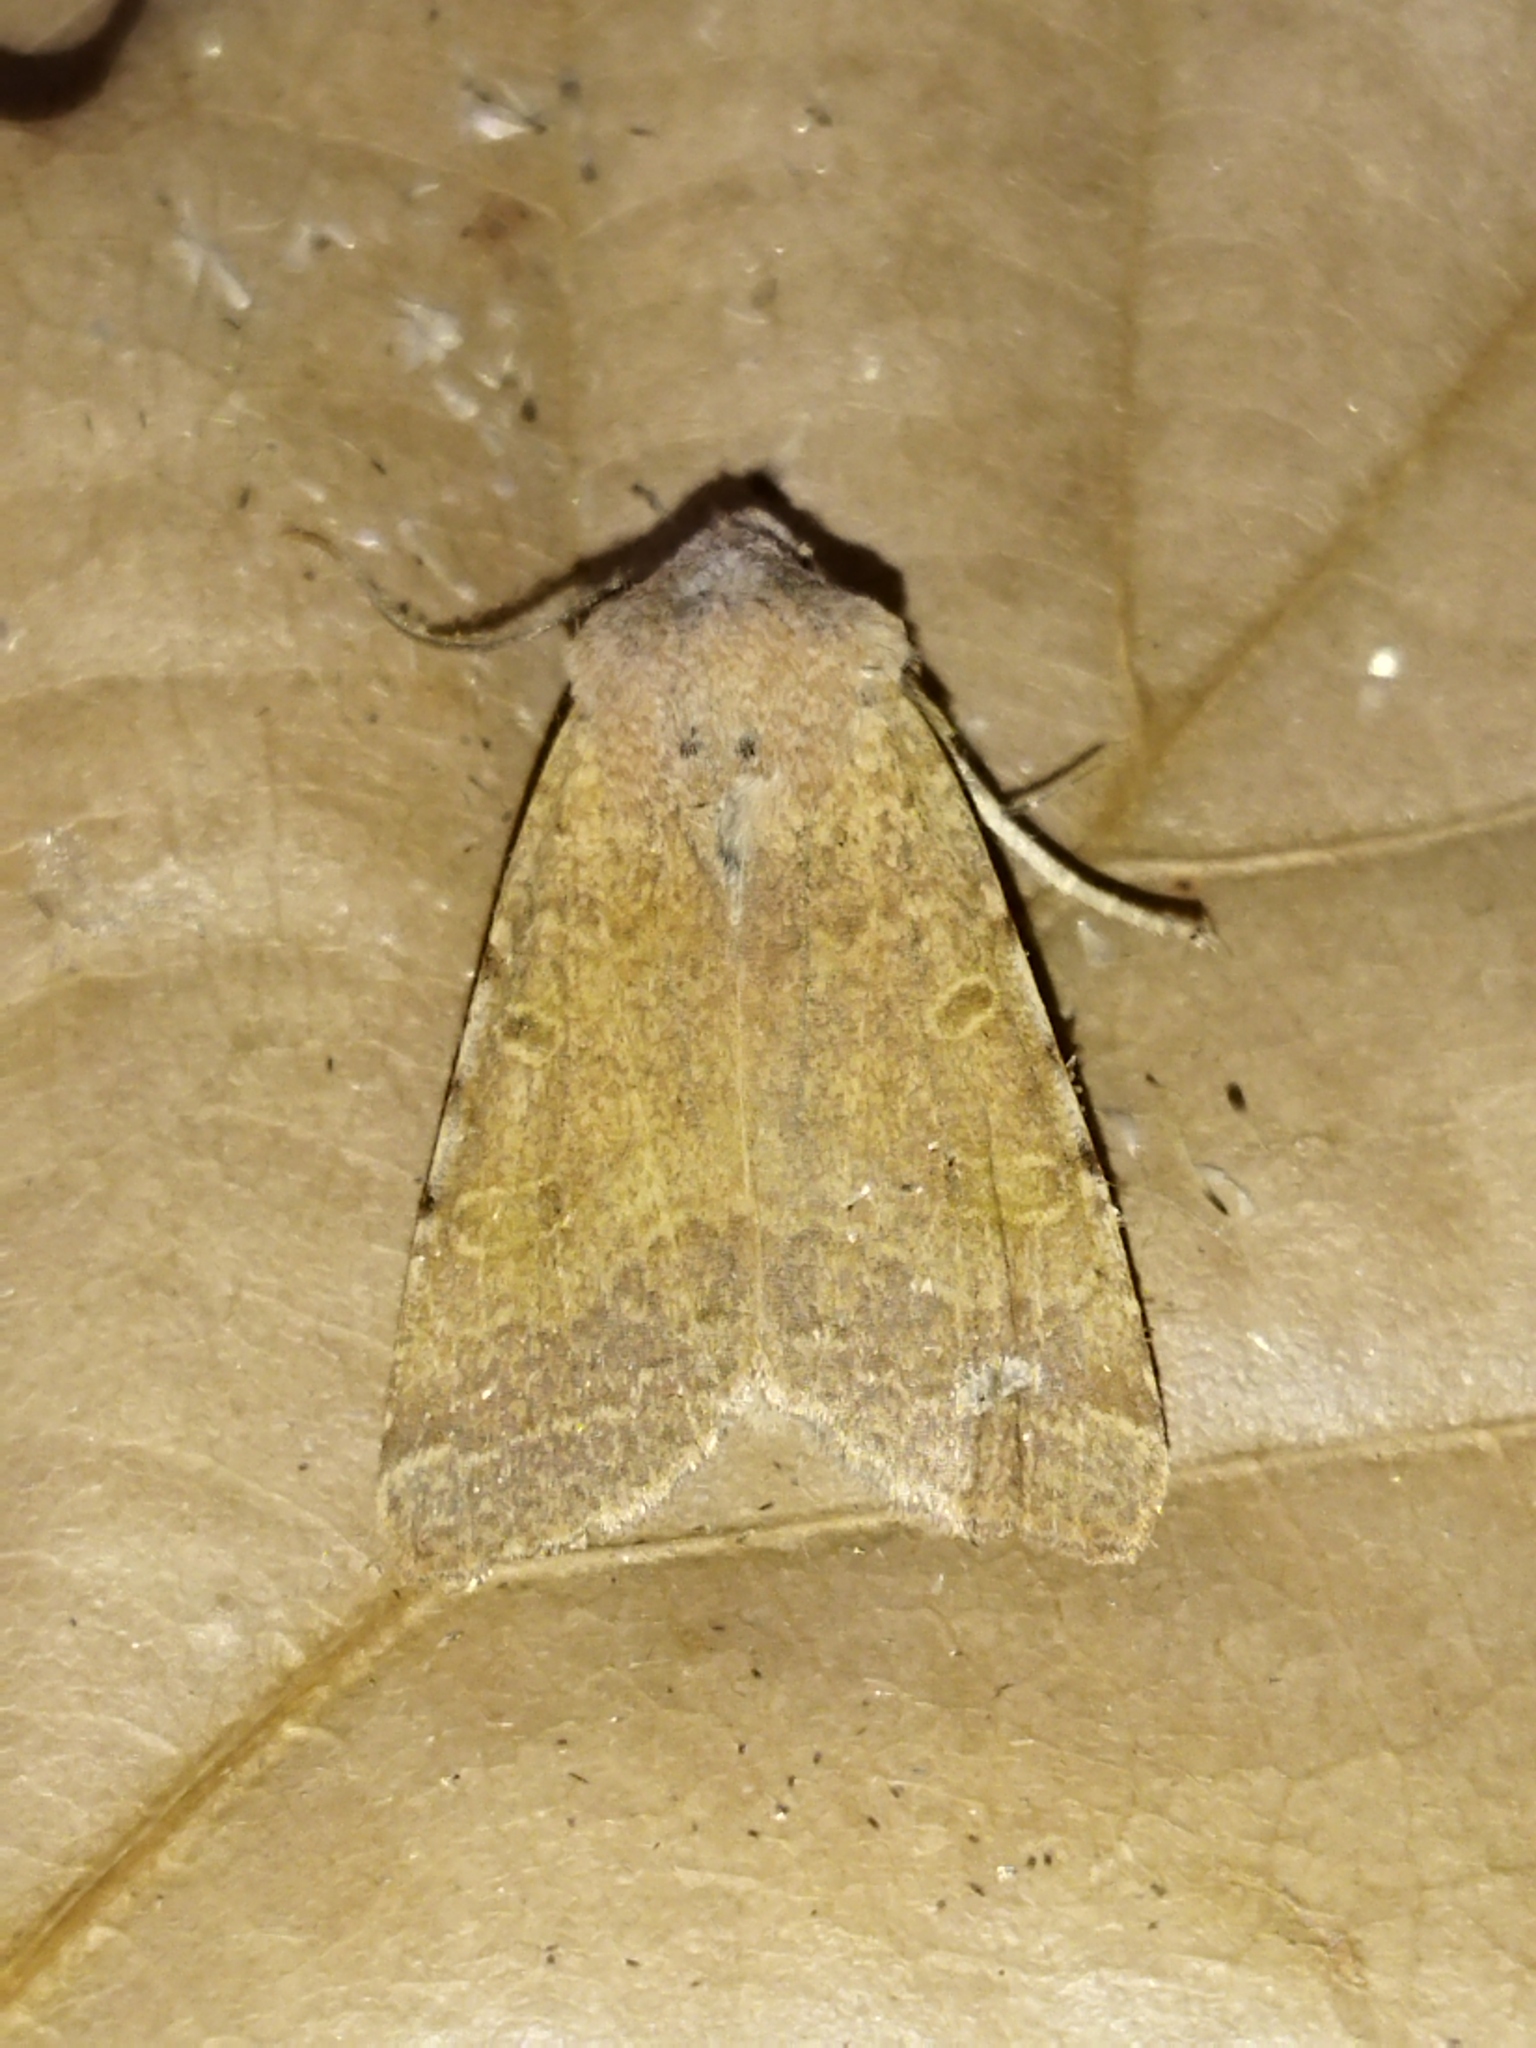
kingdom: Animalia
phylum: Arthropoda
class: Insecta
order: Lepidoptera
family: Noctuidae
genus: Agrochola
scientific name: Agrochola rupicapra
